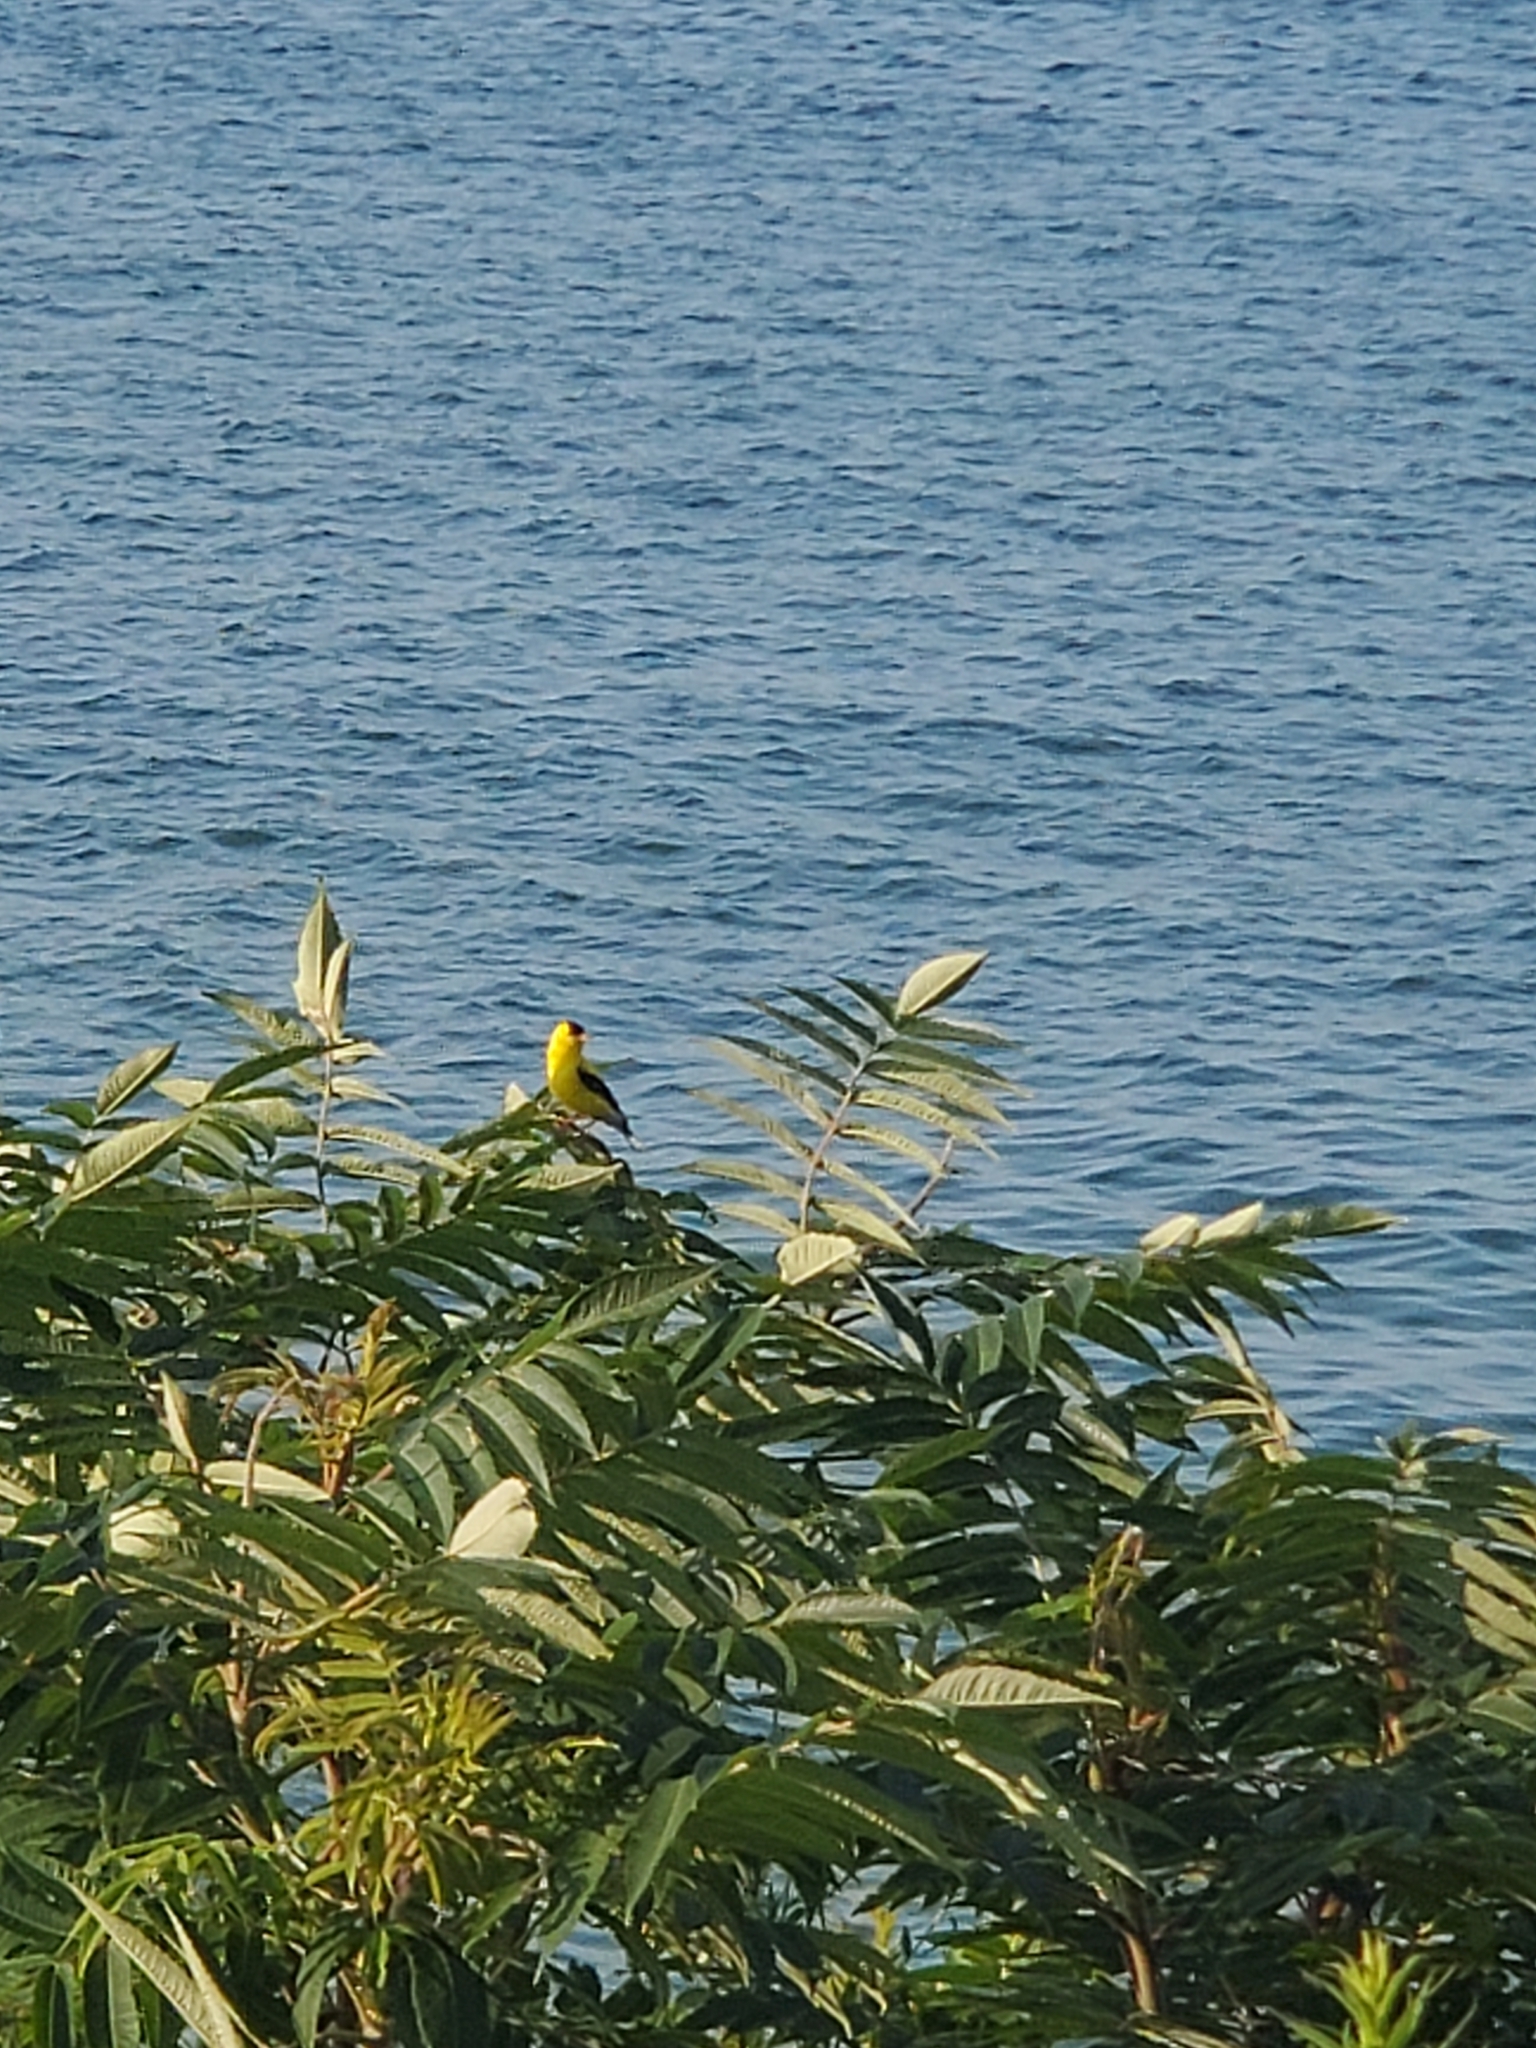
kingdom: Animalia
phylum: Chordata
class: Aves
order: Passeriformes
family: Fringillidae
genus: Spinus
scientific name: Spinus tristis
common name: American goldfinch
